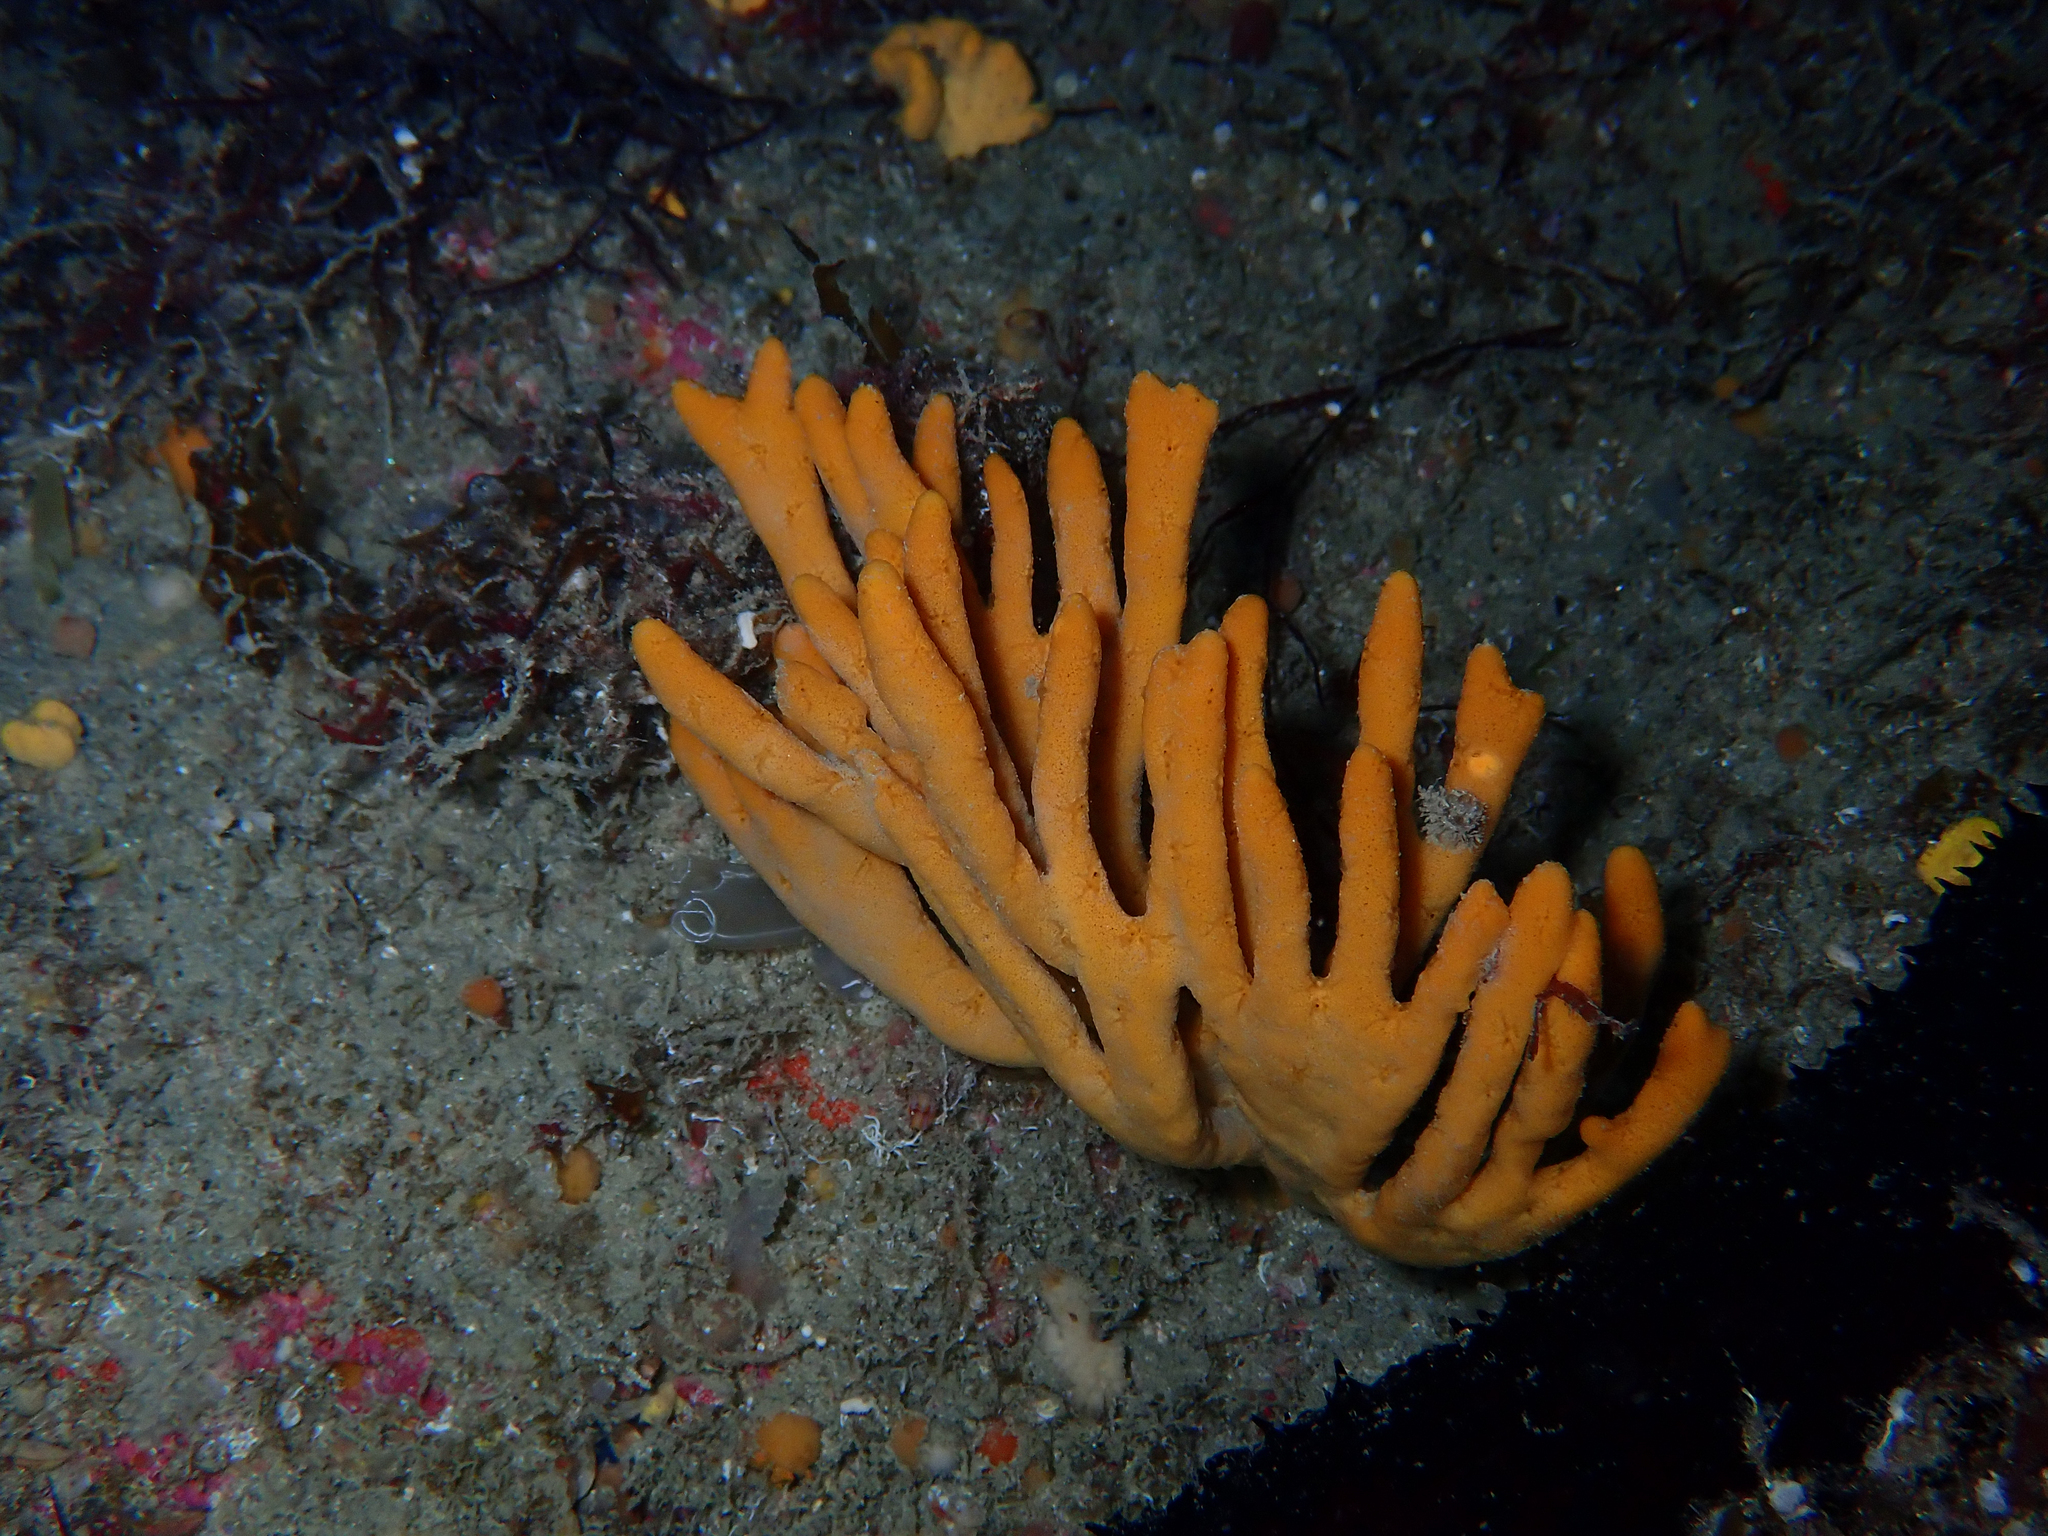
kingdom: Animalia
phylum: Porifera
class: Demospongiae
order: Axinellida
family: Axinellidae
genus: Axinella
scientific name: Axinella dissimilis
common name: Branching sponge
